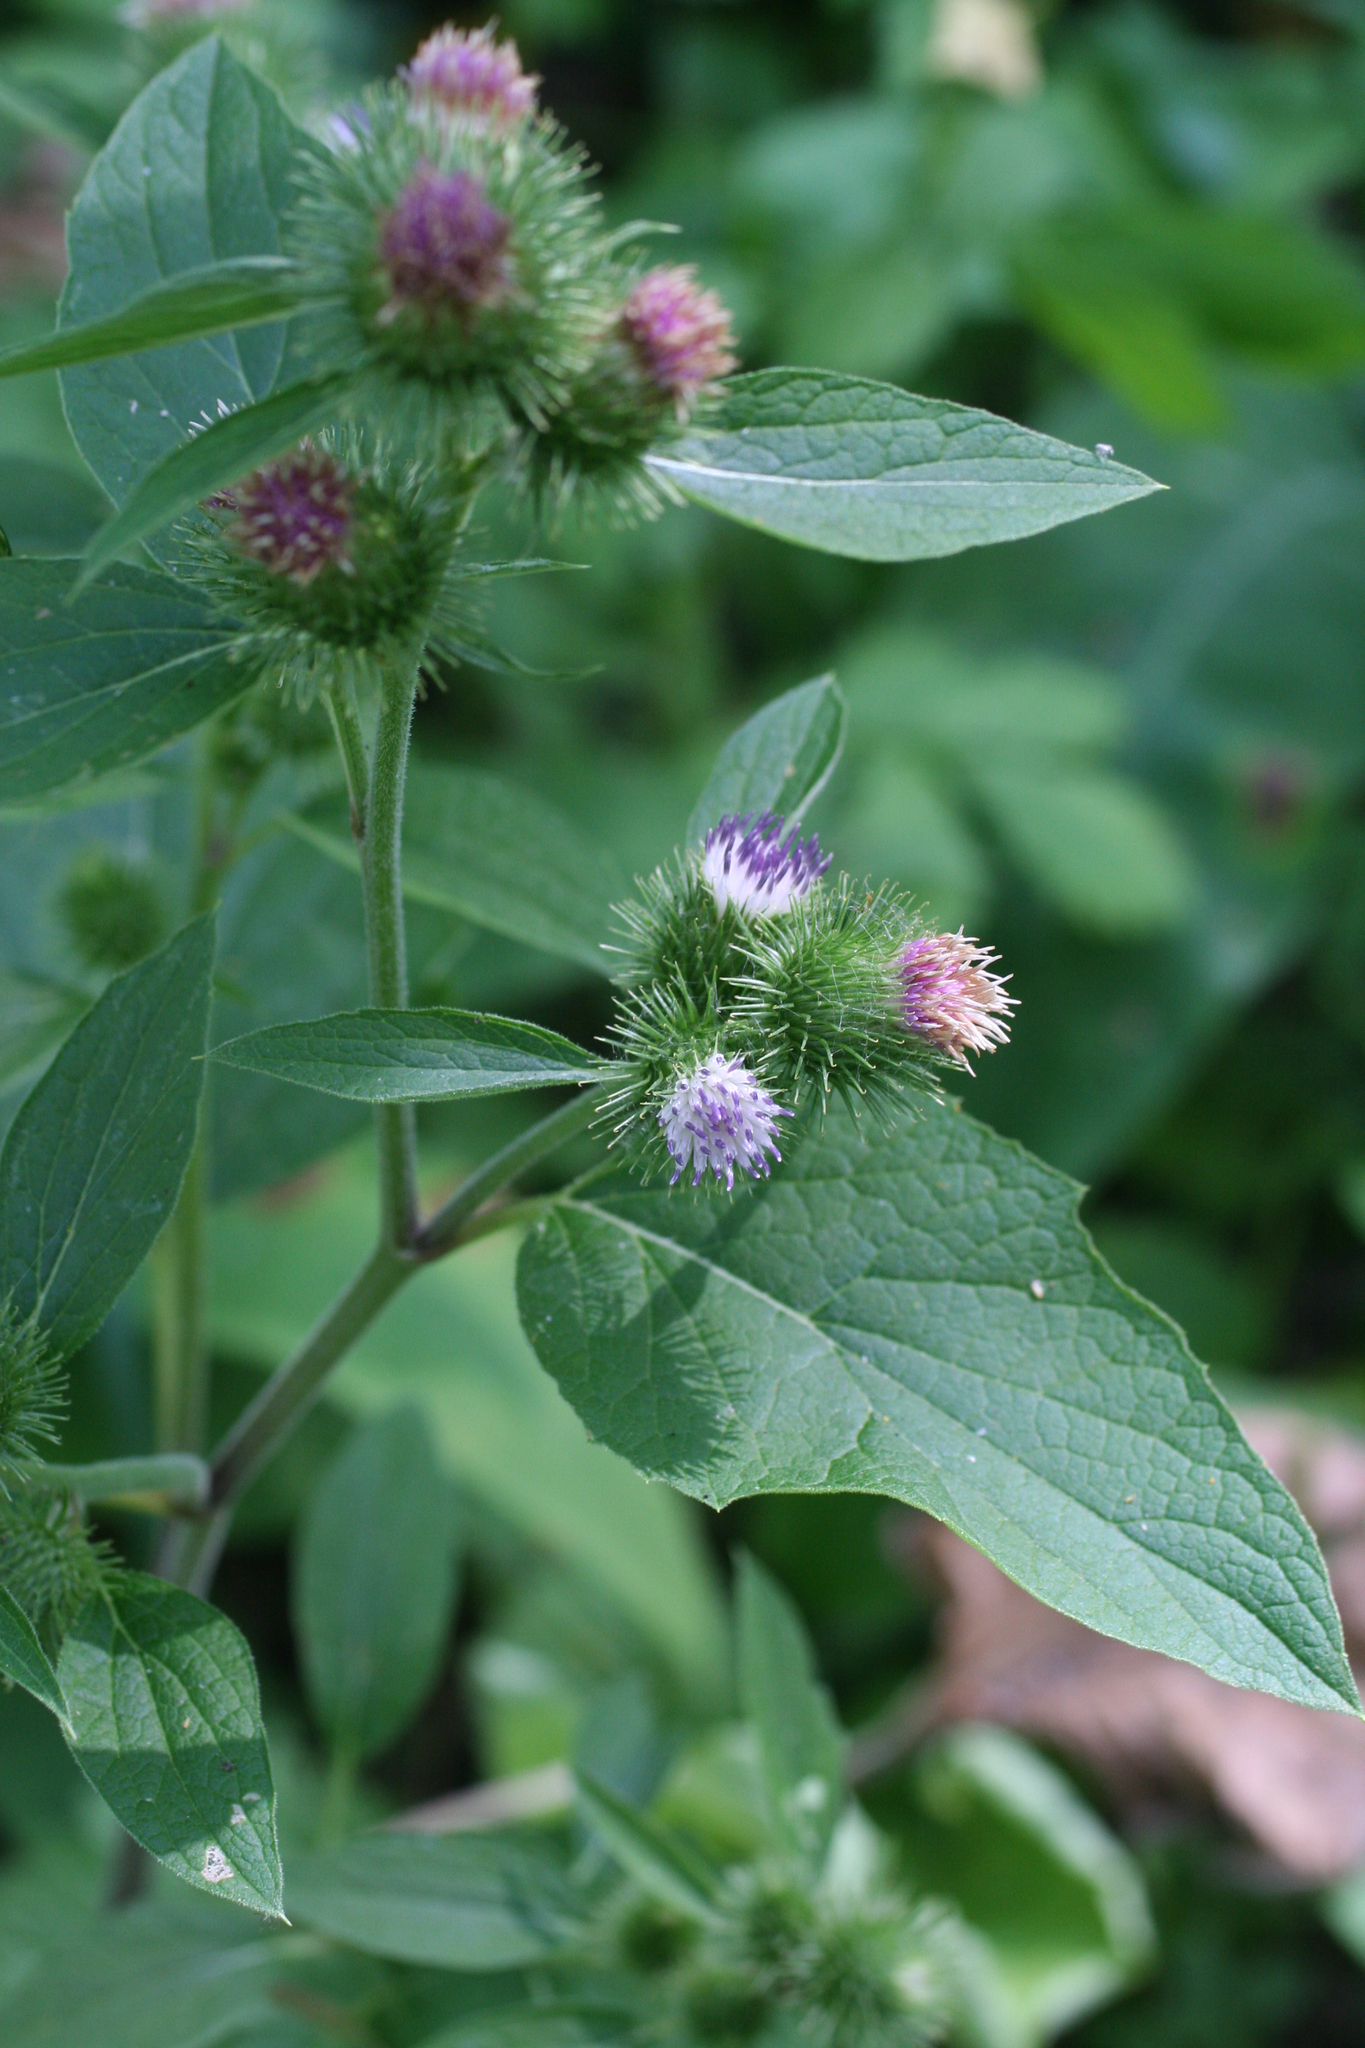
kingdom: Plantae
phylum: Tracheophyta
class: Magnoliopsida
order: Asterales
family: Asteraceae
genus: Arctium
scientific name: Arctium minus
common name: Lesser burdock
